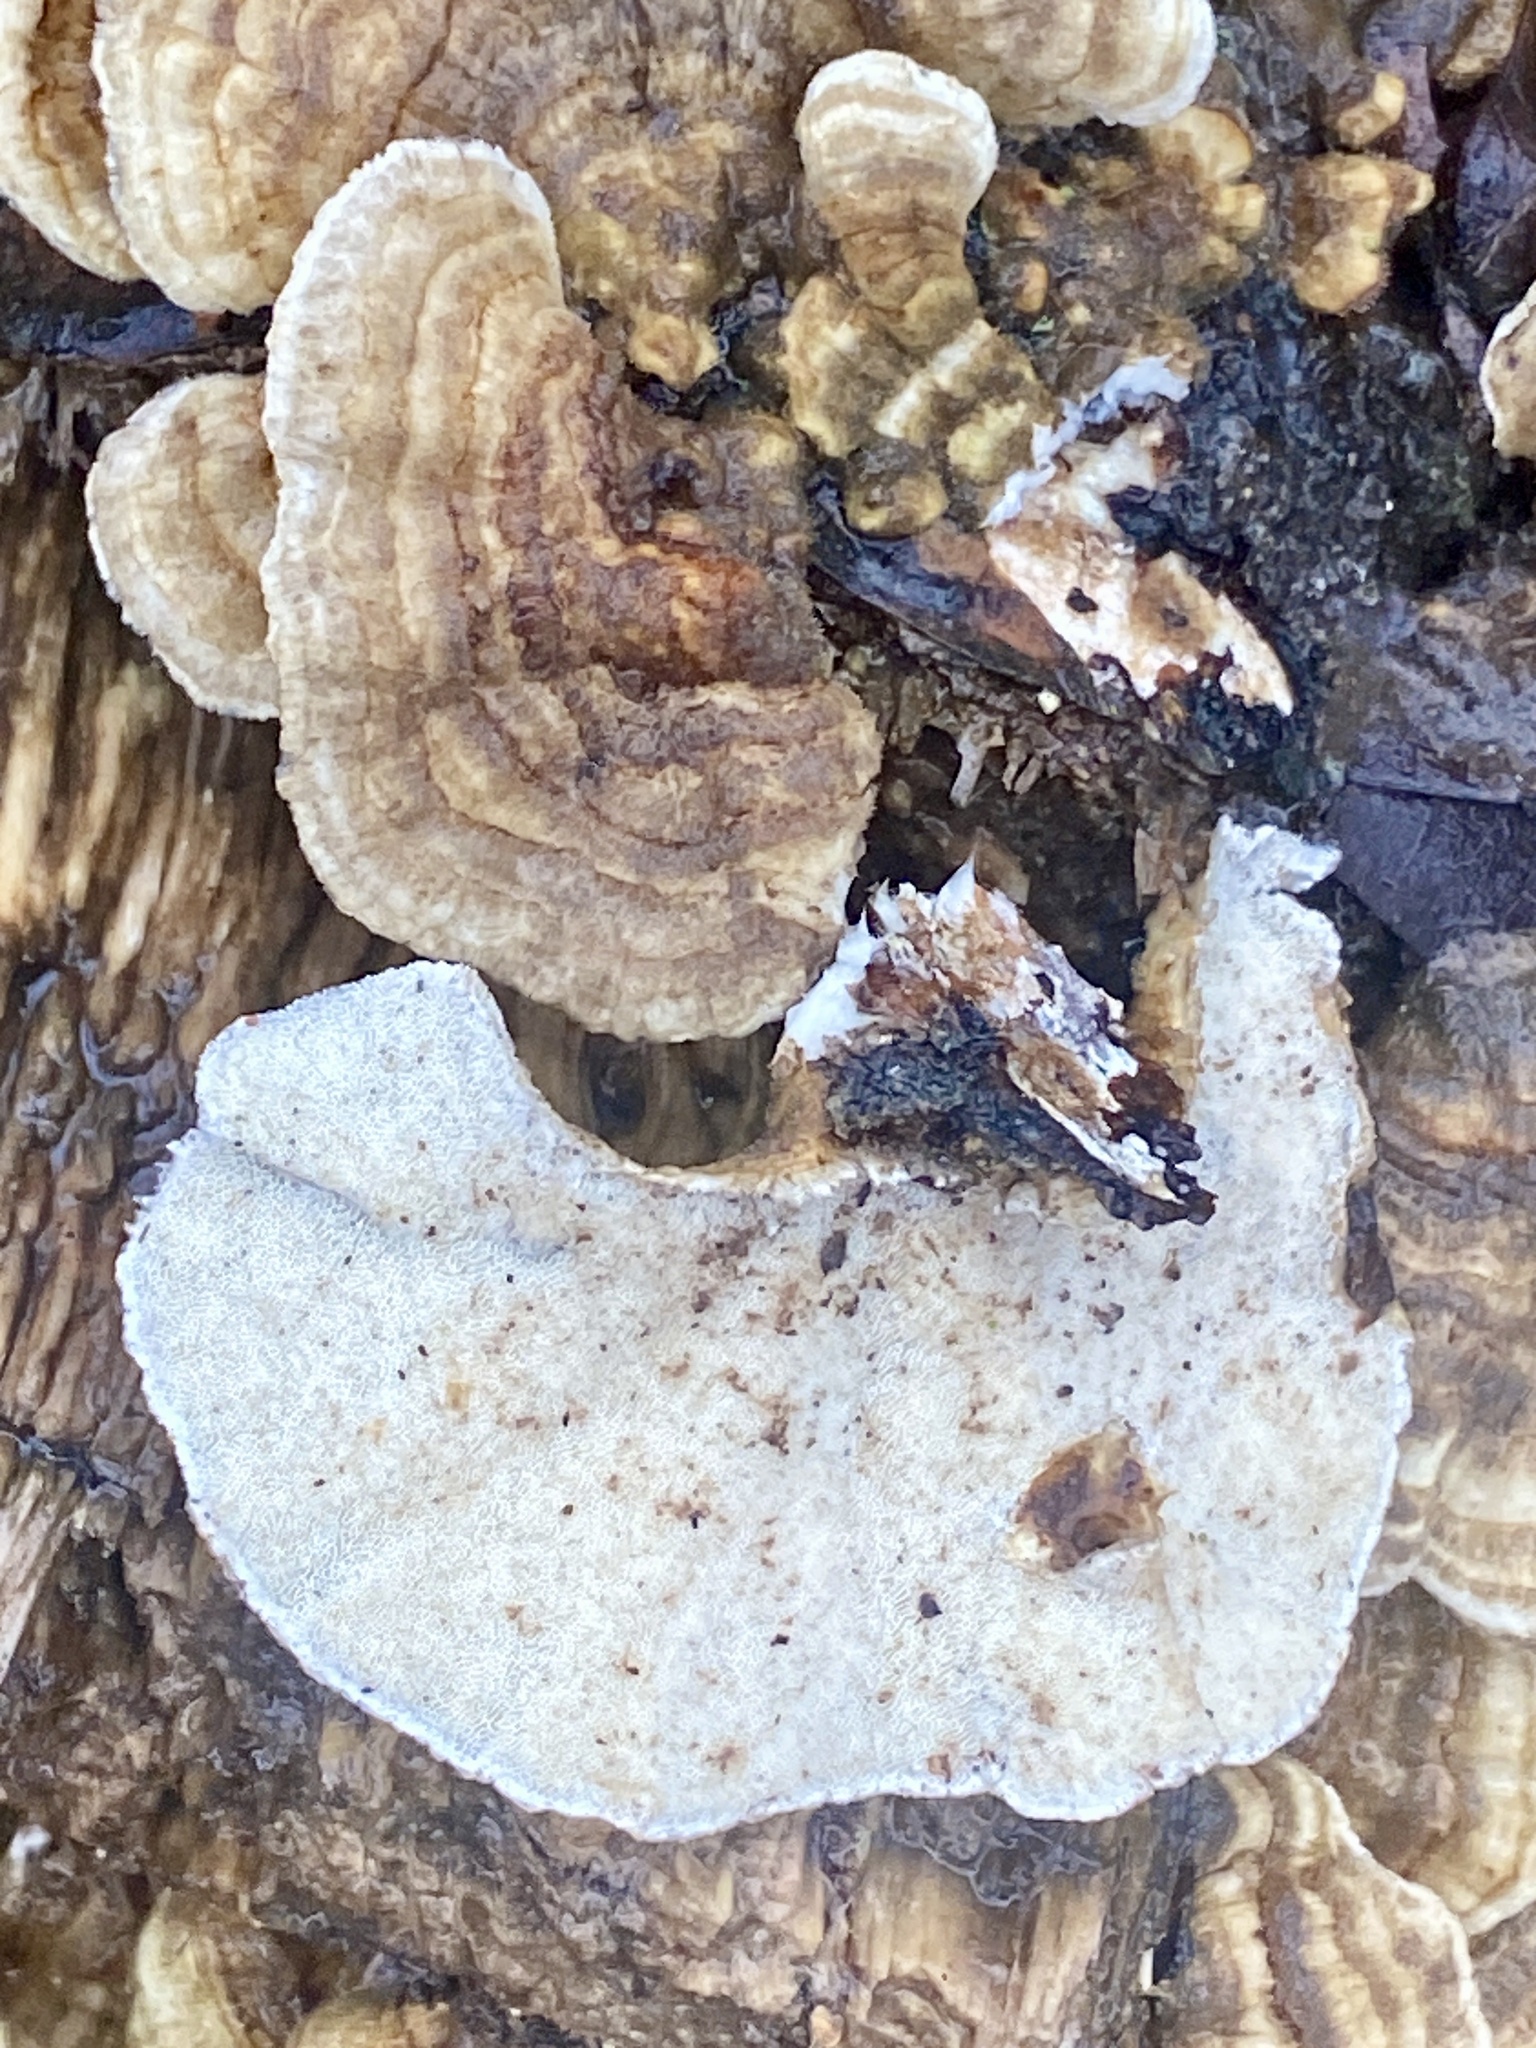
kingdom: Fungi
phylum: Basidiomycota
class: Agaricomycetes
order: Polyporales
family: Polyporaceae
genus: Trametes
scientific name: Trametes versicolor
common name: Turkeytail
